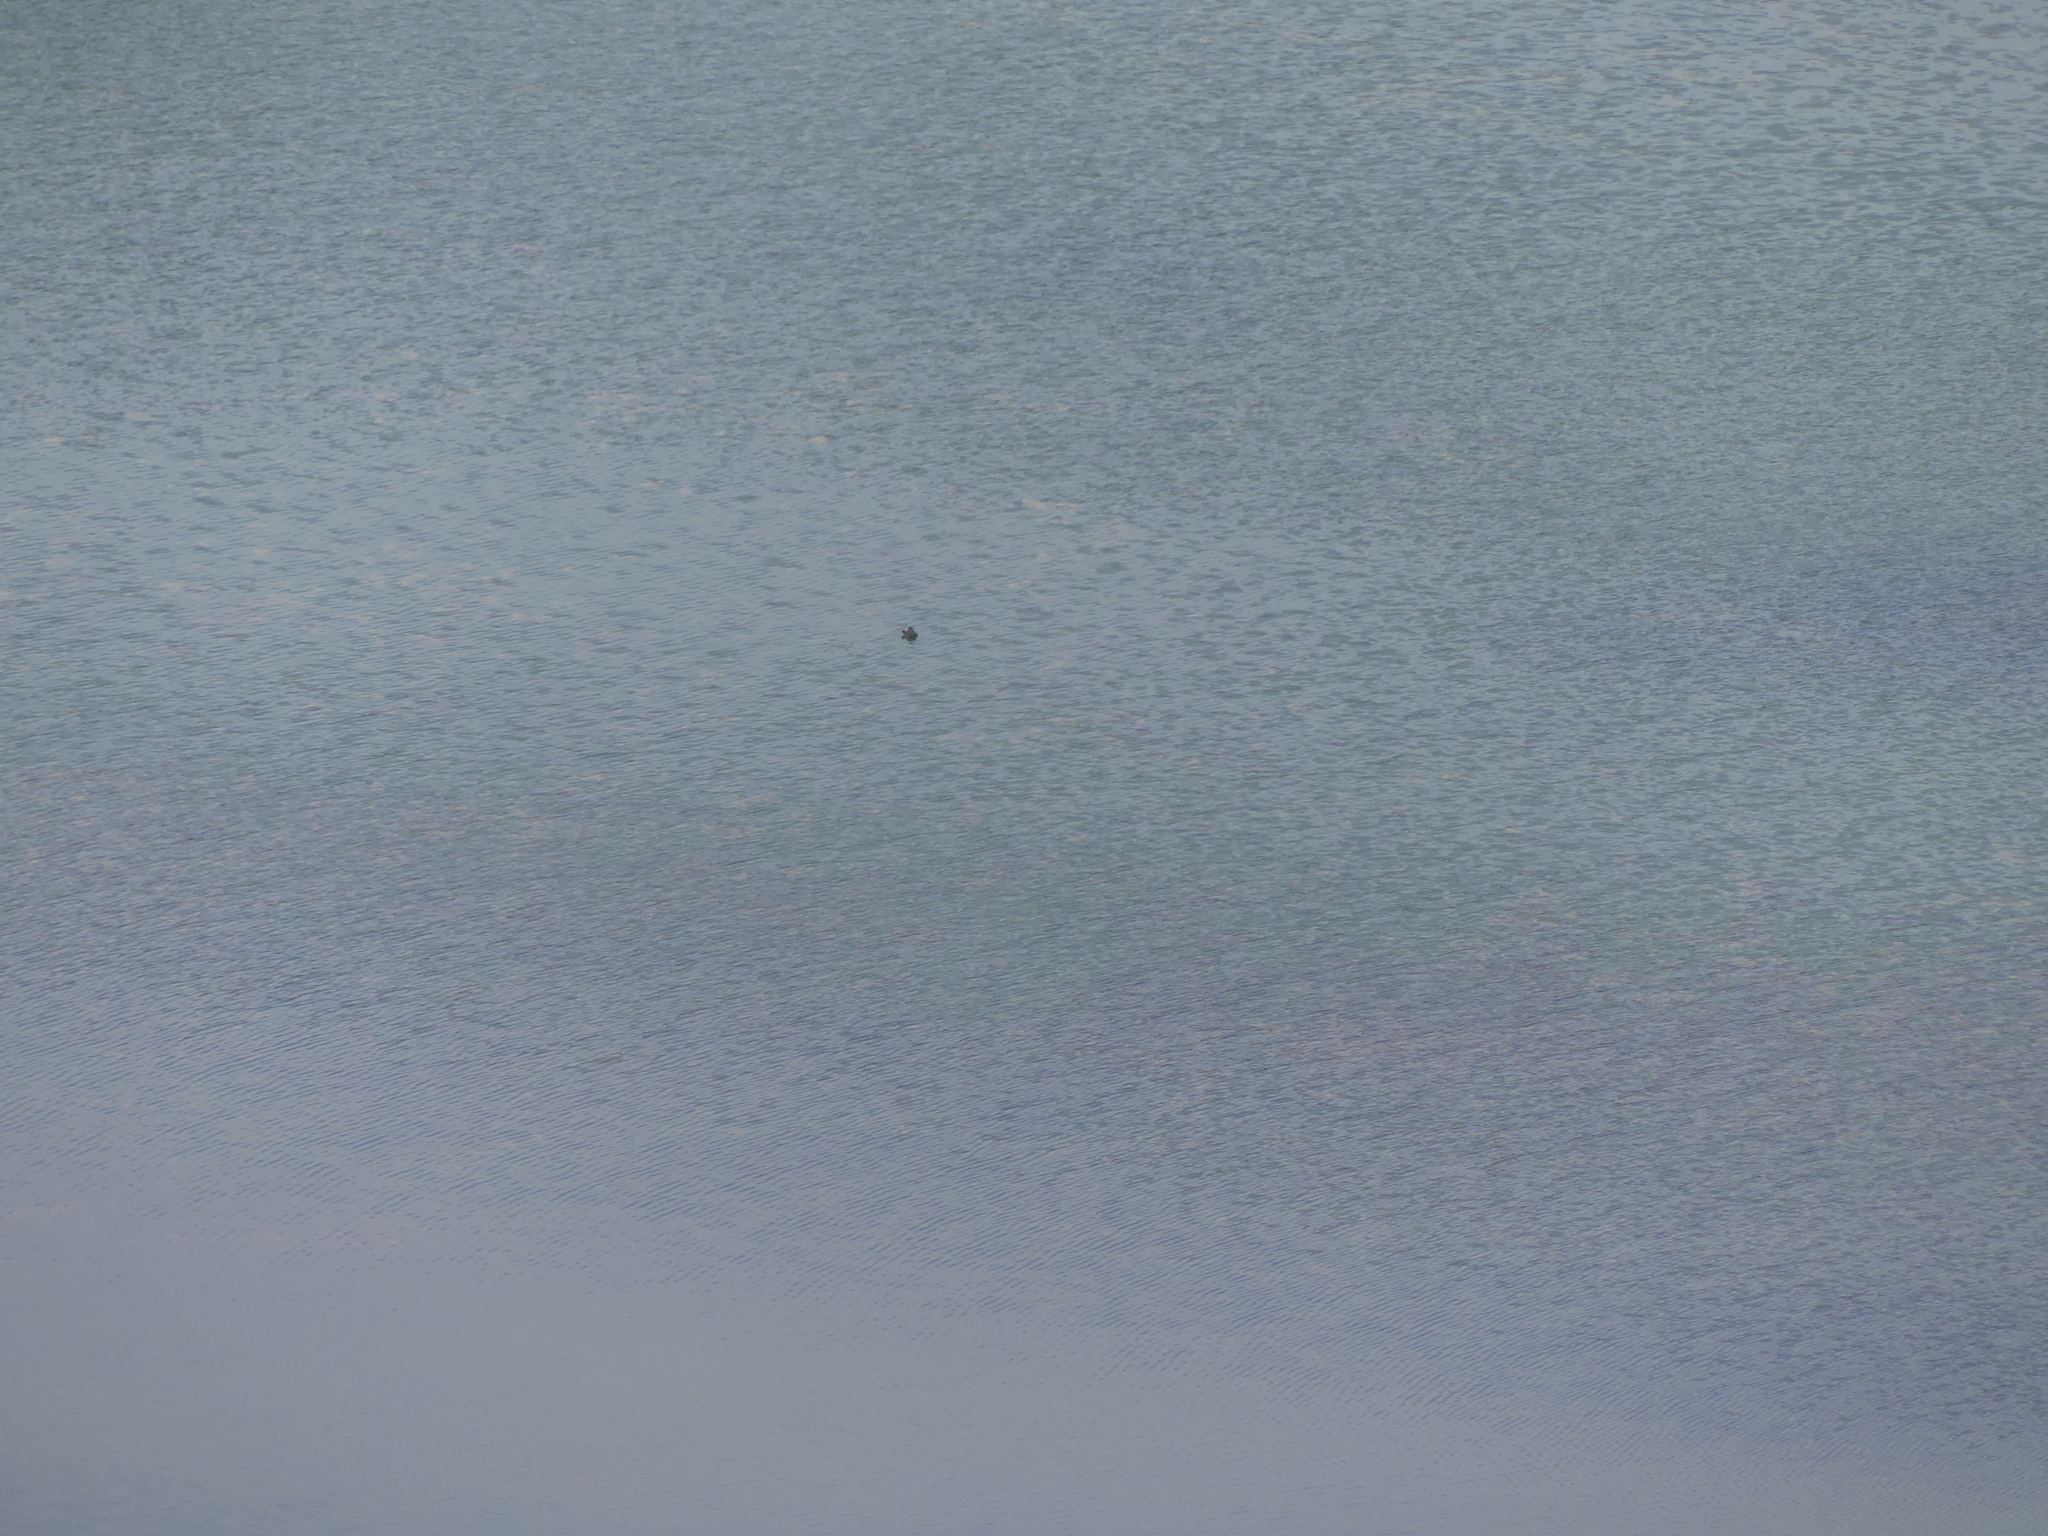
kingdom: Animalia
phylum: Chordata
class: Aves
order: Anseriformes
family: Anatidae
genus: Oxyura
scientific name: Oxyura jamaicensis
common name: Ruddy duck
